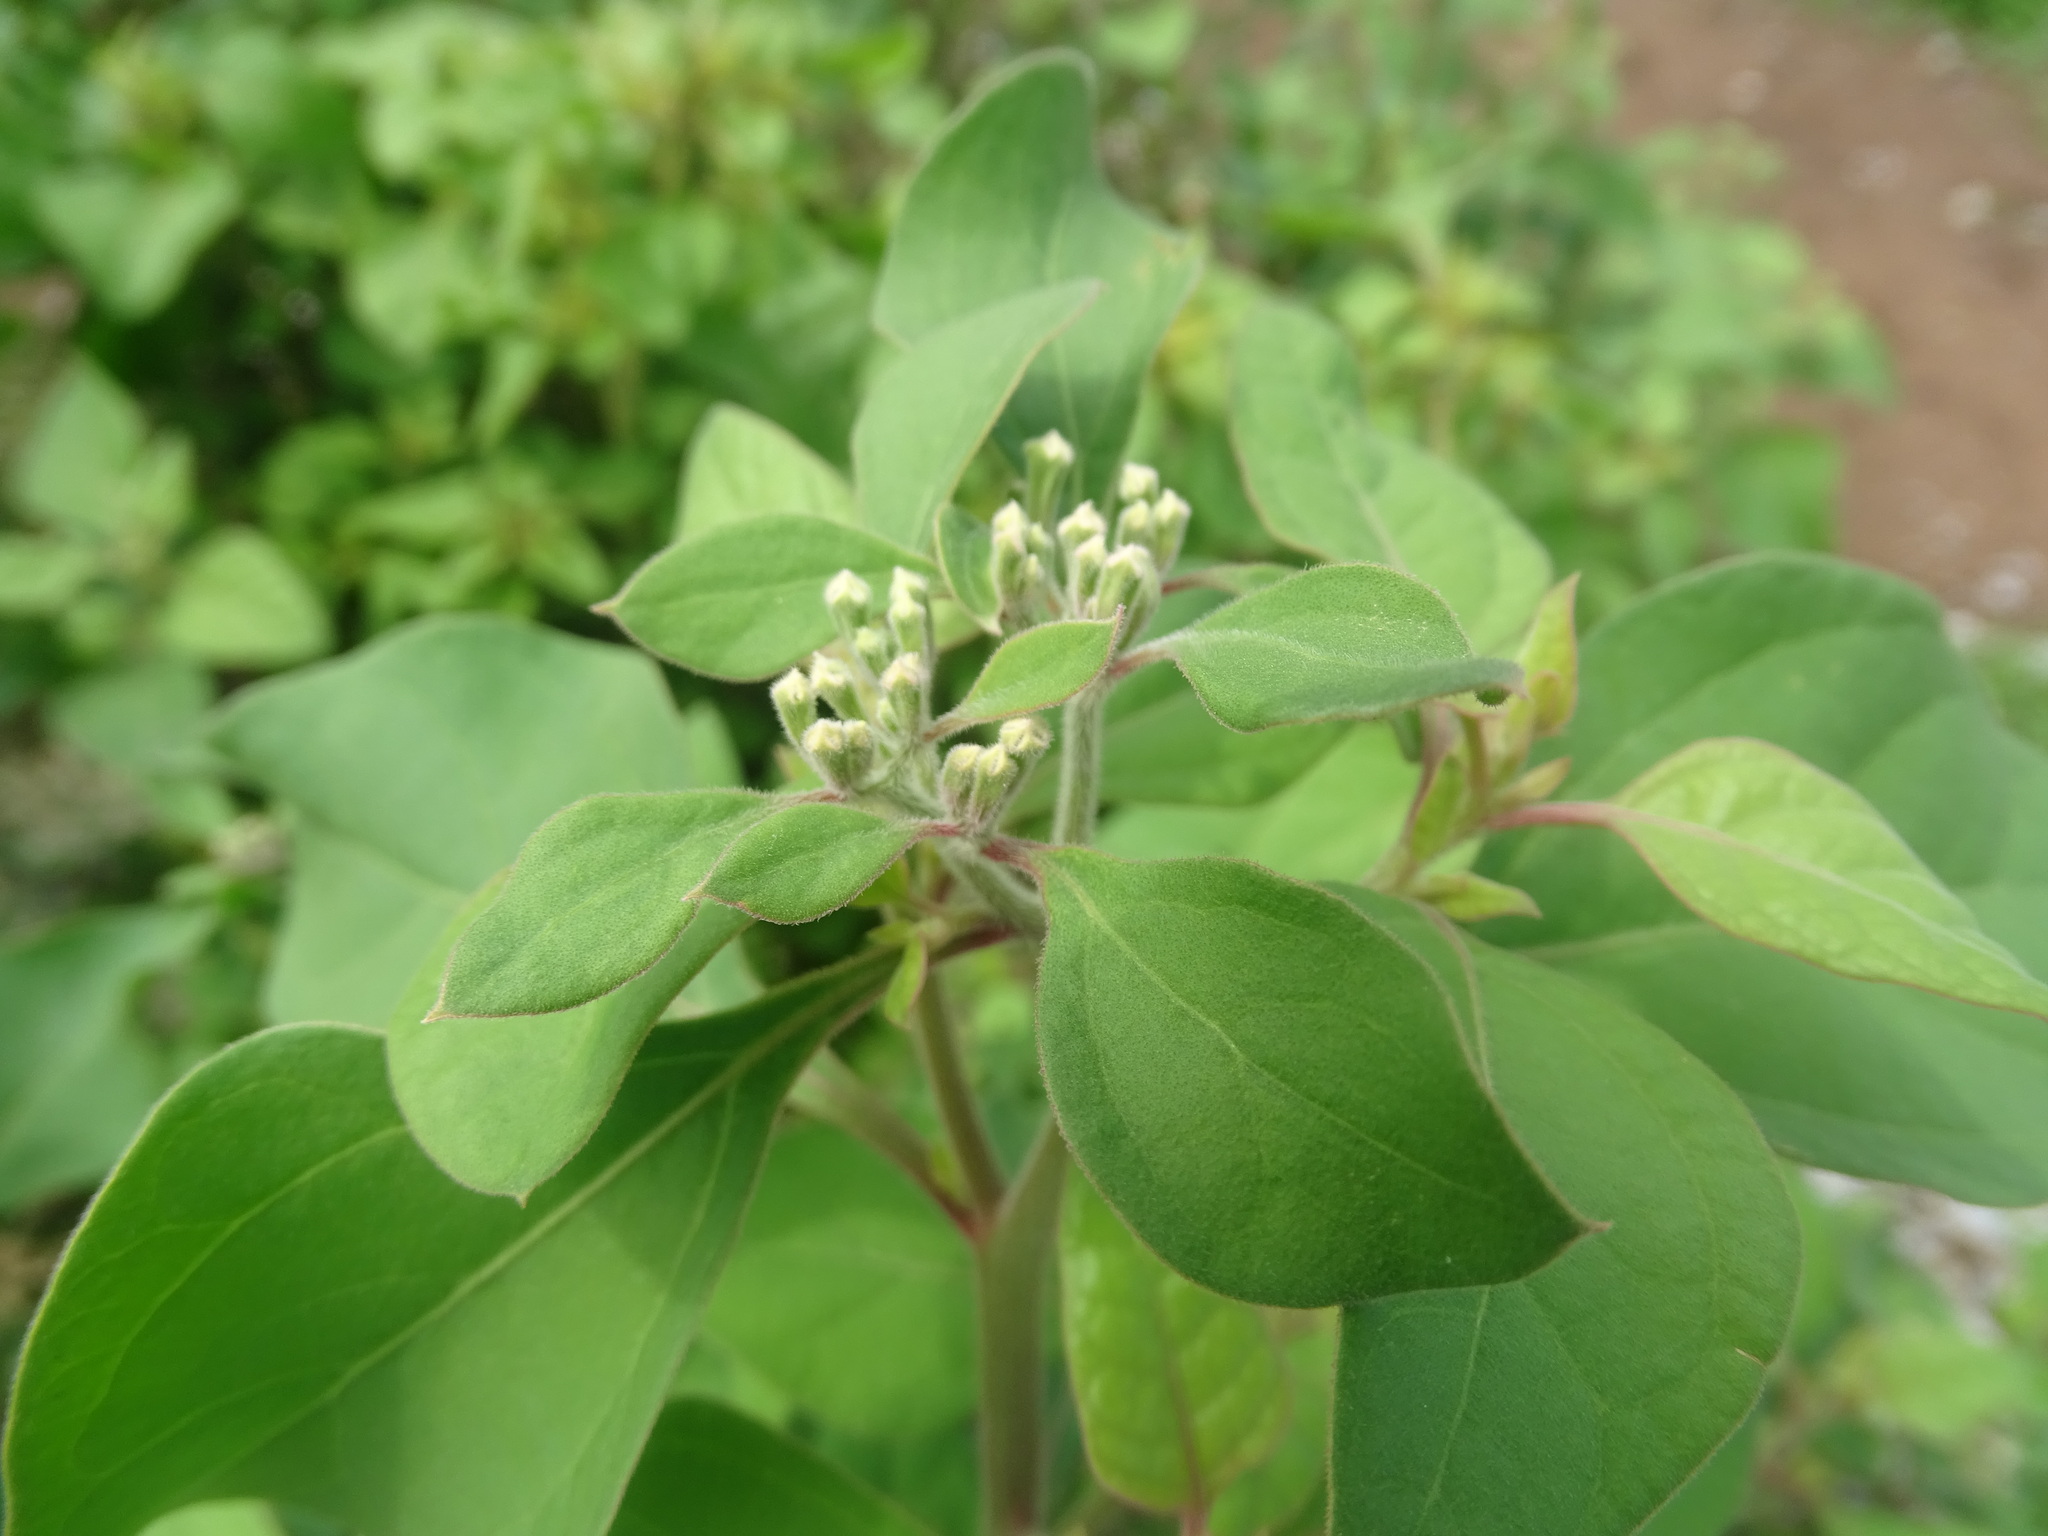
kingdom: Plantae
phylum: Tracheophyta
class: Magnoliopsida
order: Caryophyllales
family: Nyctaginaceae
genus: Salpianthus
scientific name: Salpianthus arenarius
